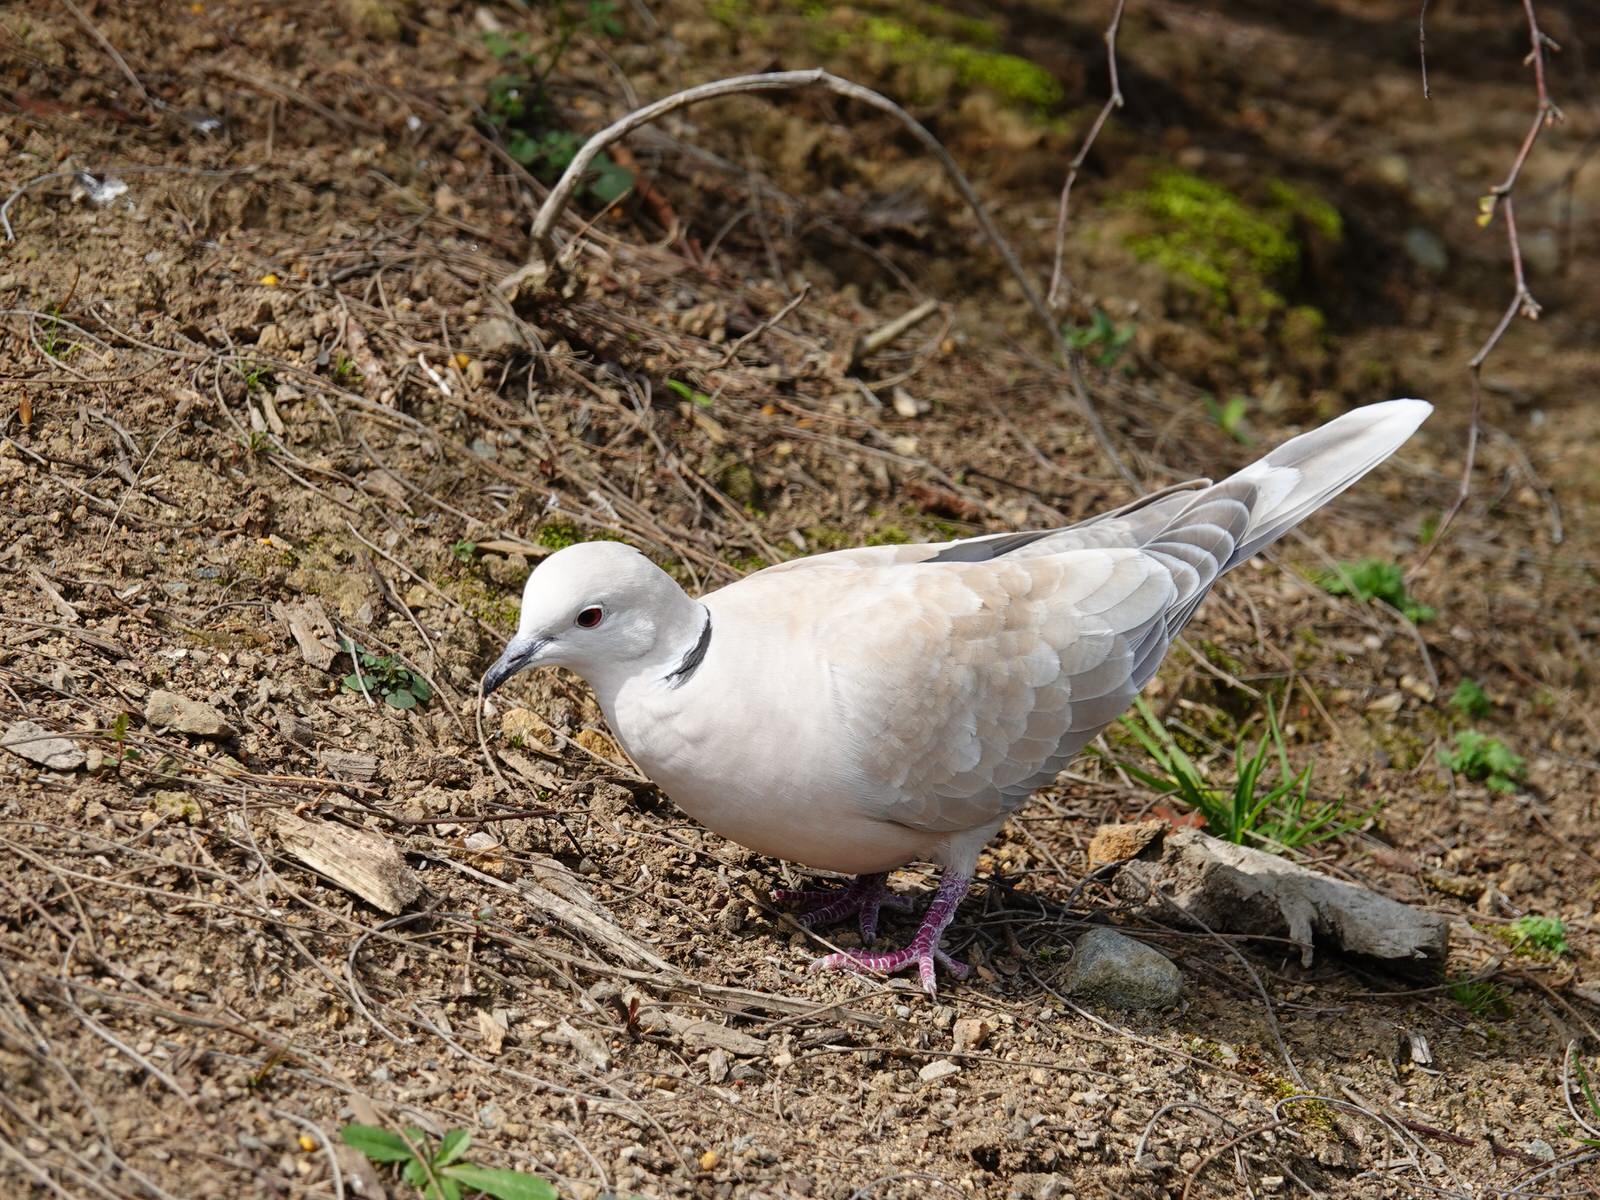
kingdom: Animalia
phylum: Chordata
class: Aves
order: Columbiformes
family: Columbidae
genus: Streptopelia
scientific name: Streptopelia roseogrisea
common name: African collared dove
